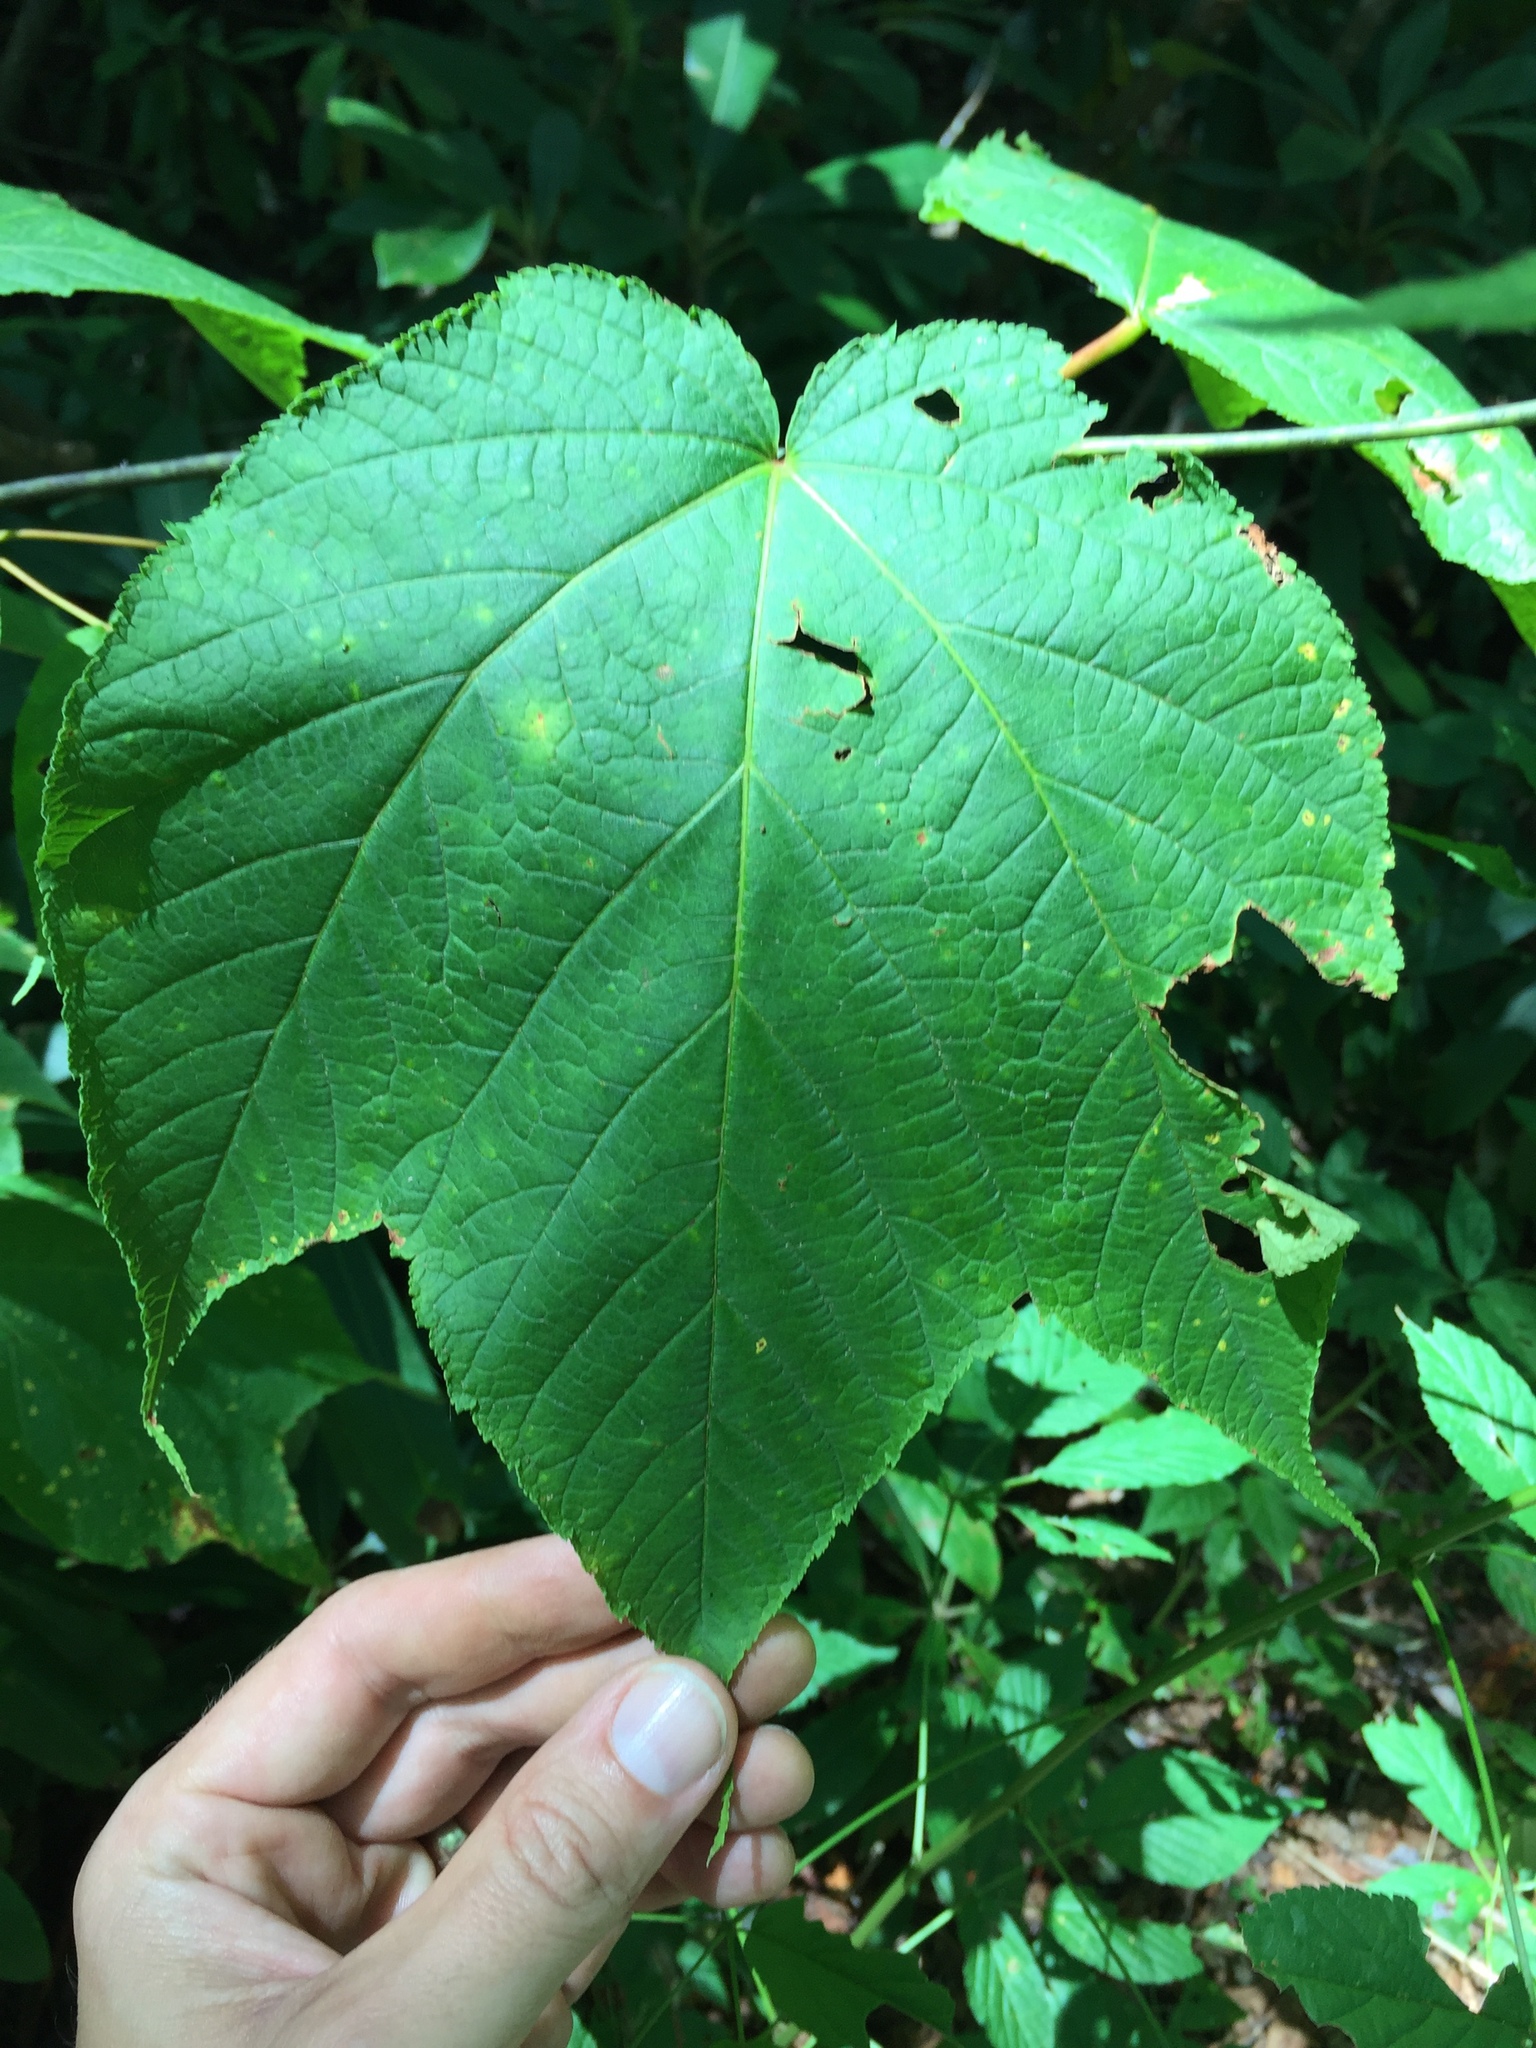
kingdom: Plantae
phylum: Tracheophyta
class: Magnoliopsida
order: Sapindales
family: Sapindaceae
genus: Acer
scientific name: Acer pensylvanicum
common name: Moosewood
